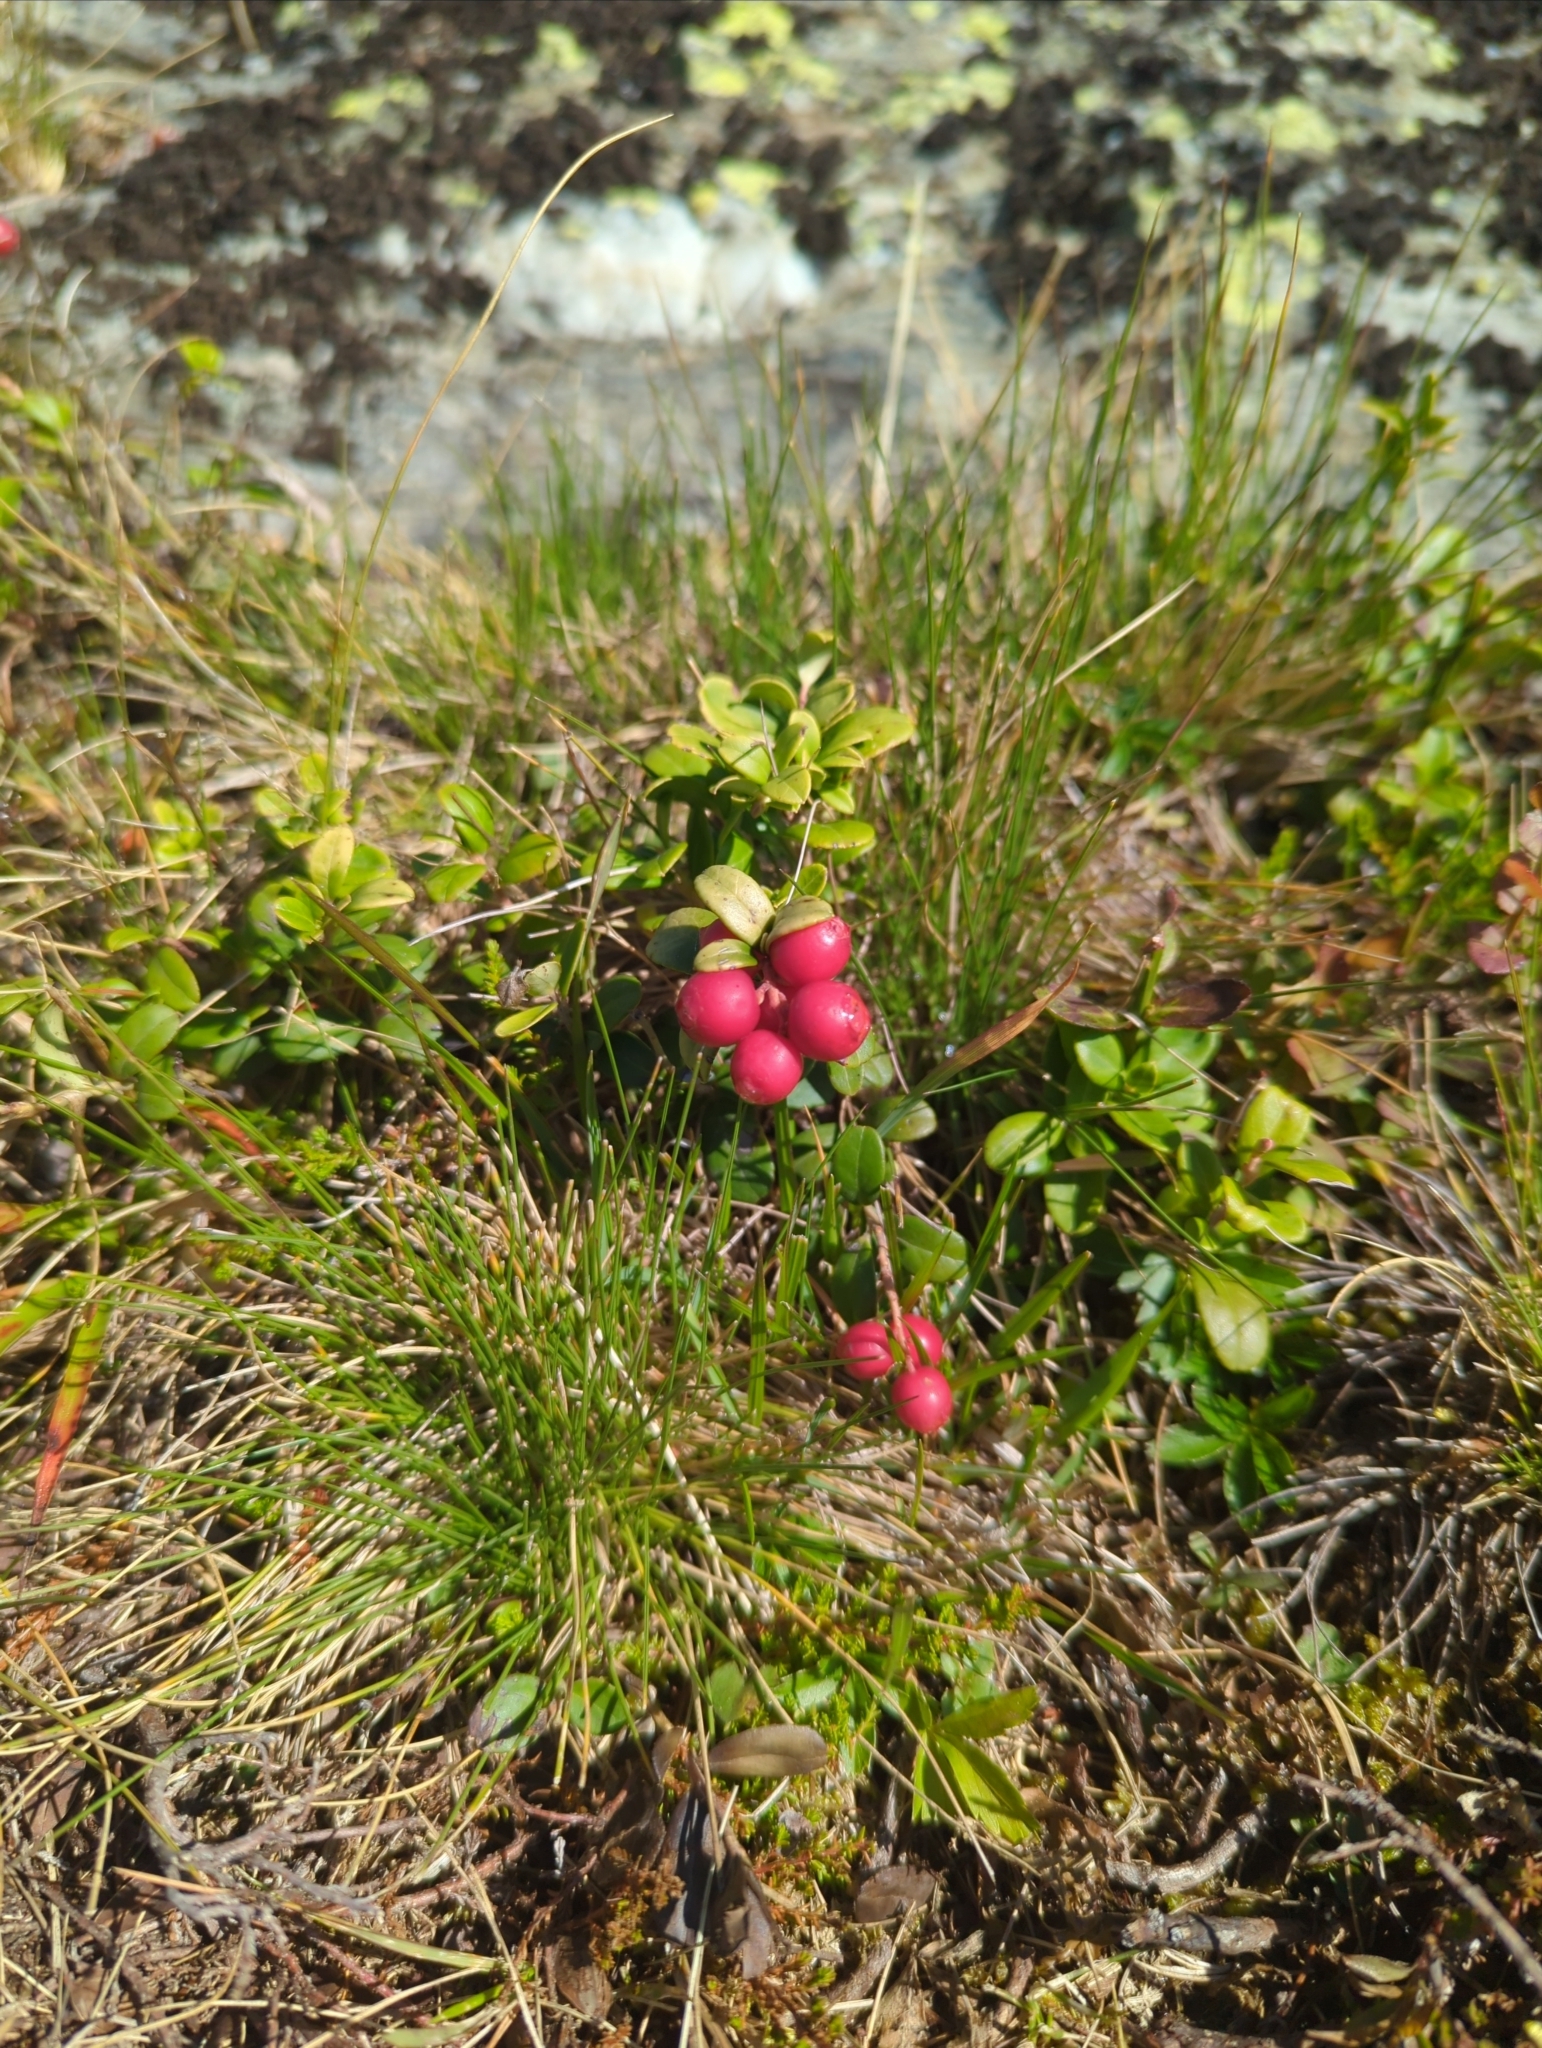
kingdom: Plantae
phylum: Tracheophyta
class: Magnoliopsida
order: Ericales
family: Ericaceae
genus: Vaccinium
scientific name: Vaccinium vitis-idaea
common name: Cowberry
